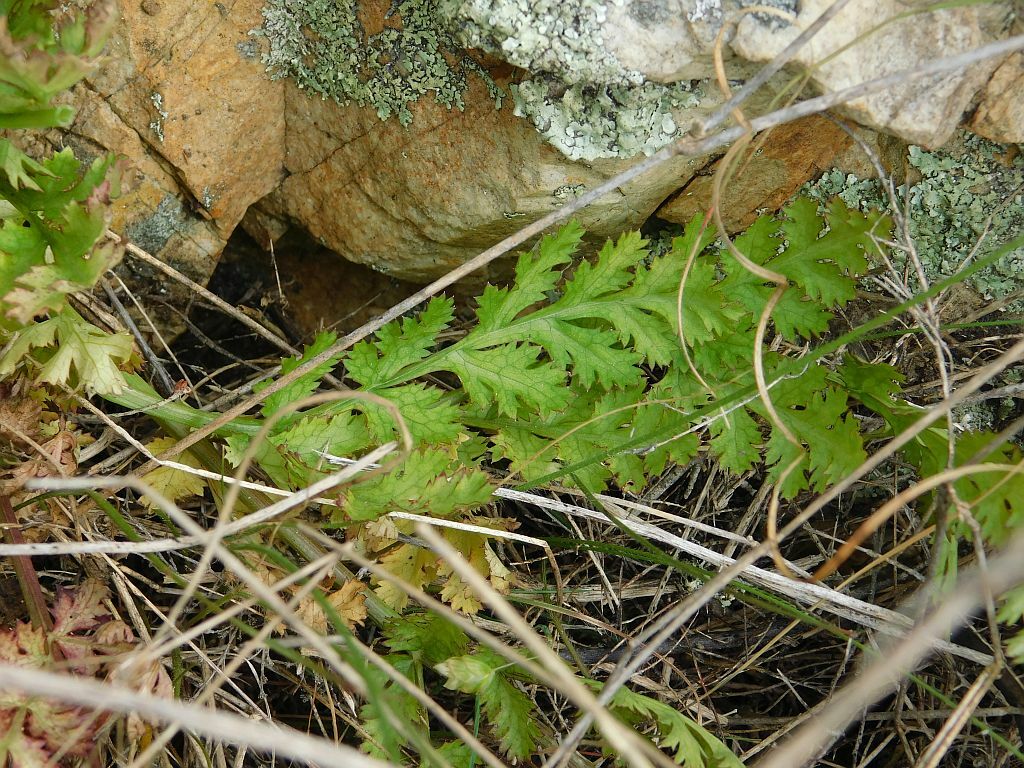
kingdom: Plantae
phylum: Tracheophyta
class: Magnoliopsida
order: Apiales
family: Apiaceae
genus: Lichtensteinia
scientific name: Lichtensteinia interrupta
